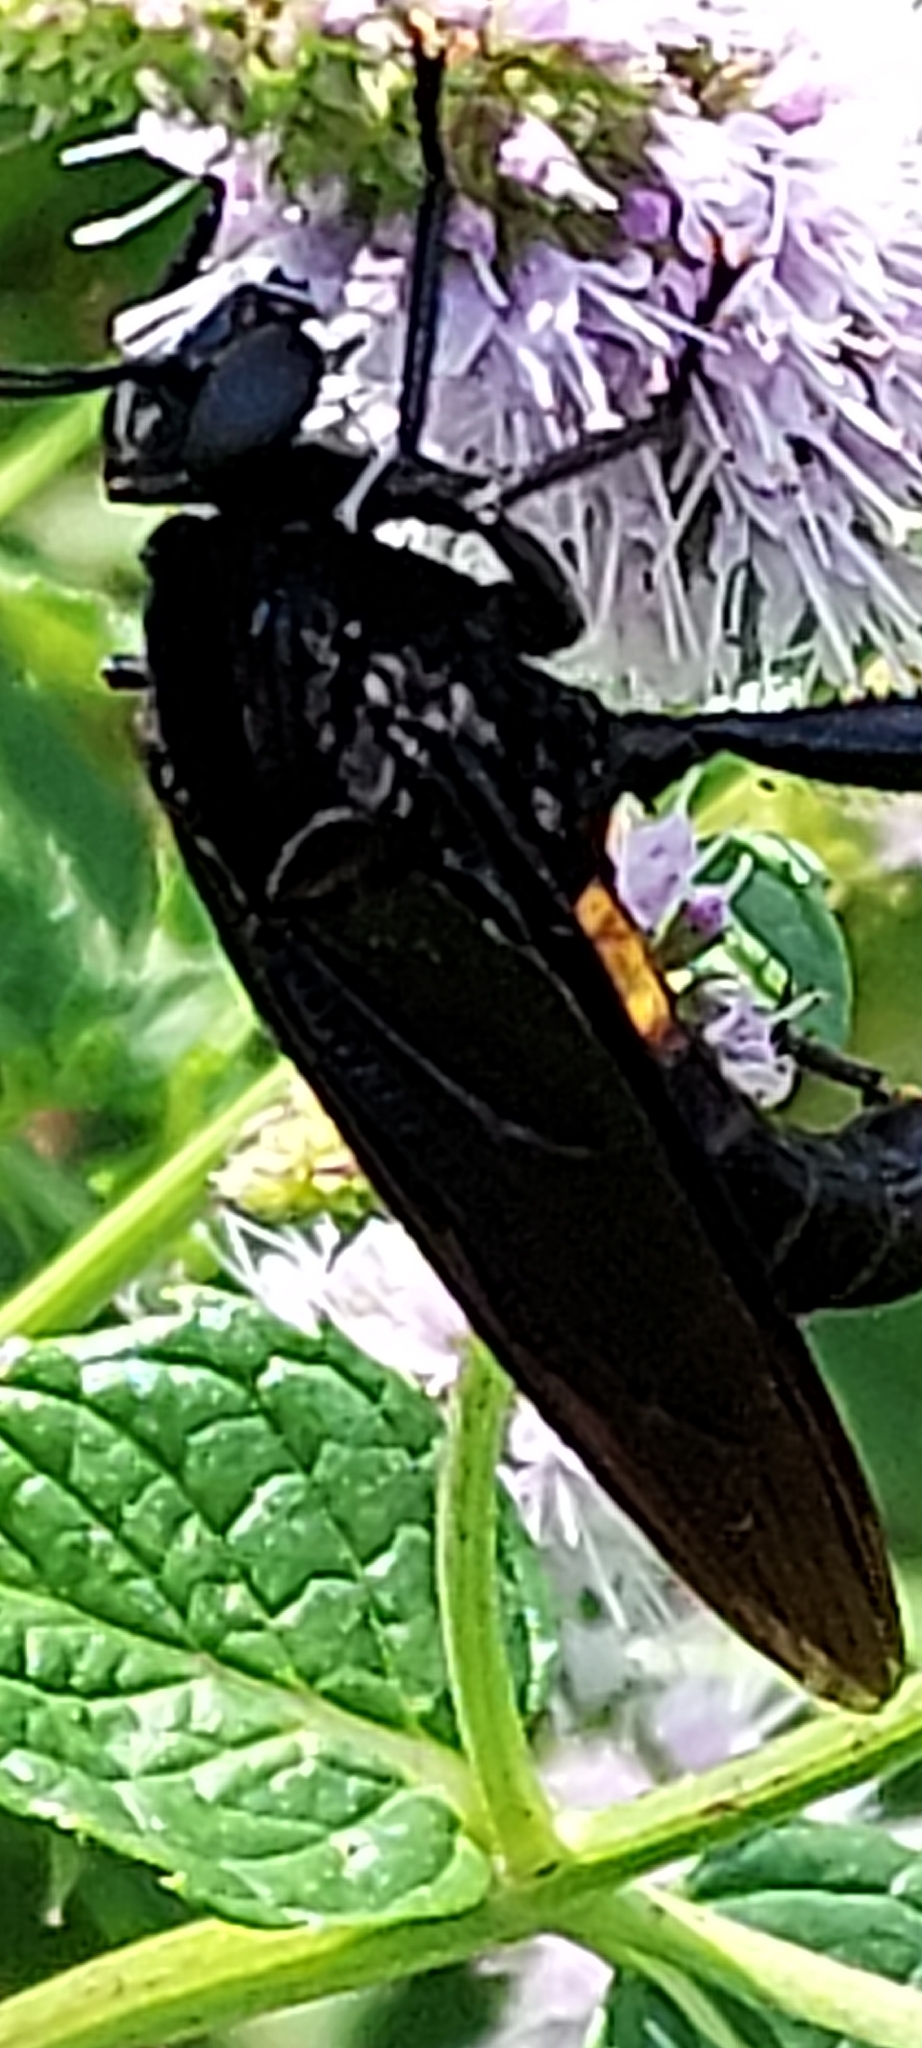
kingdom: Animalia
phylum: Arthropoda
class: Insecta
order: Diptera
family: Mydidae
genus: Mydas
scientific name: Mydas clavatus
